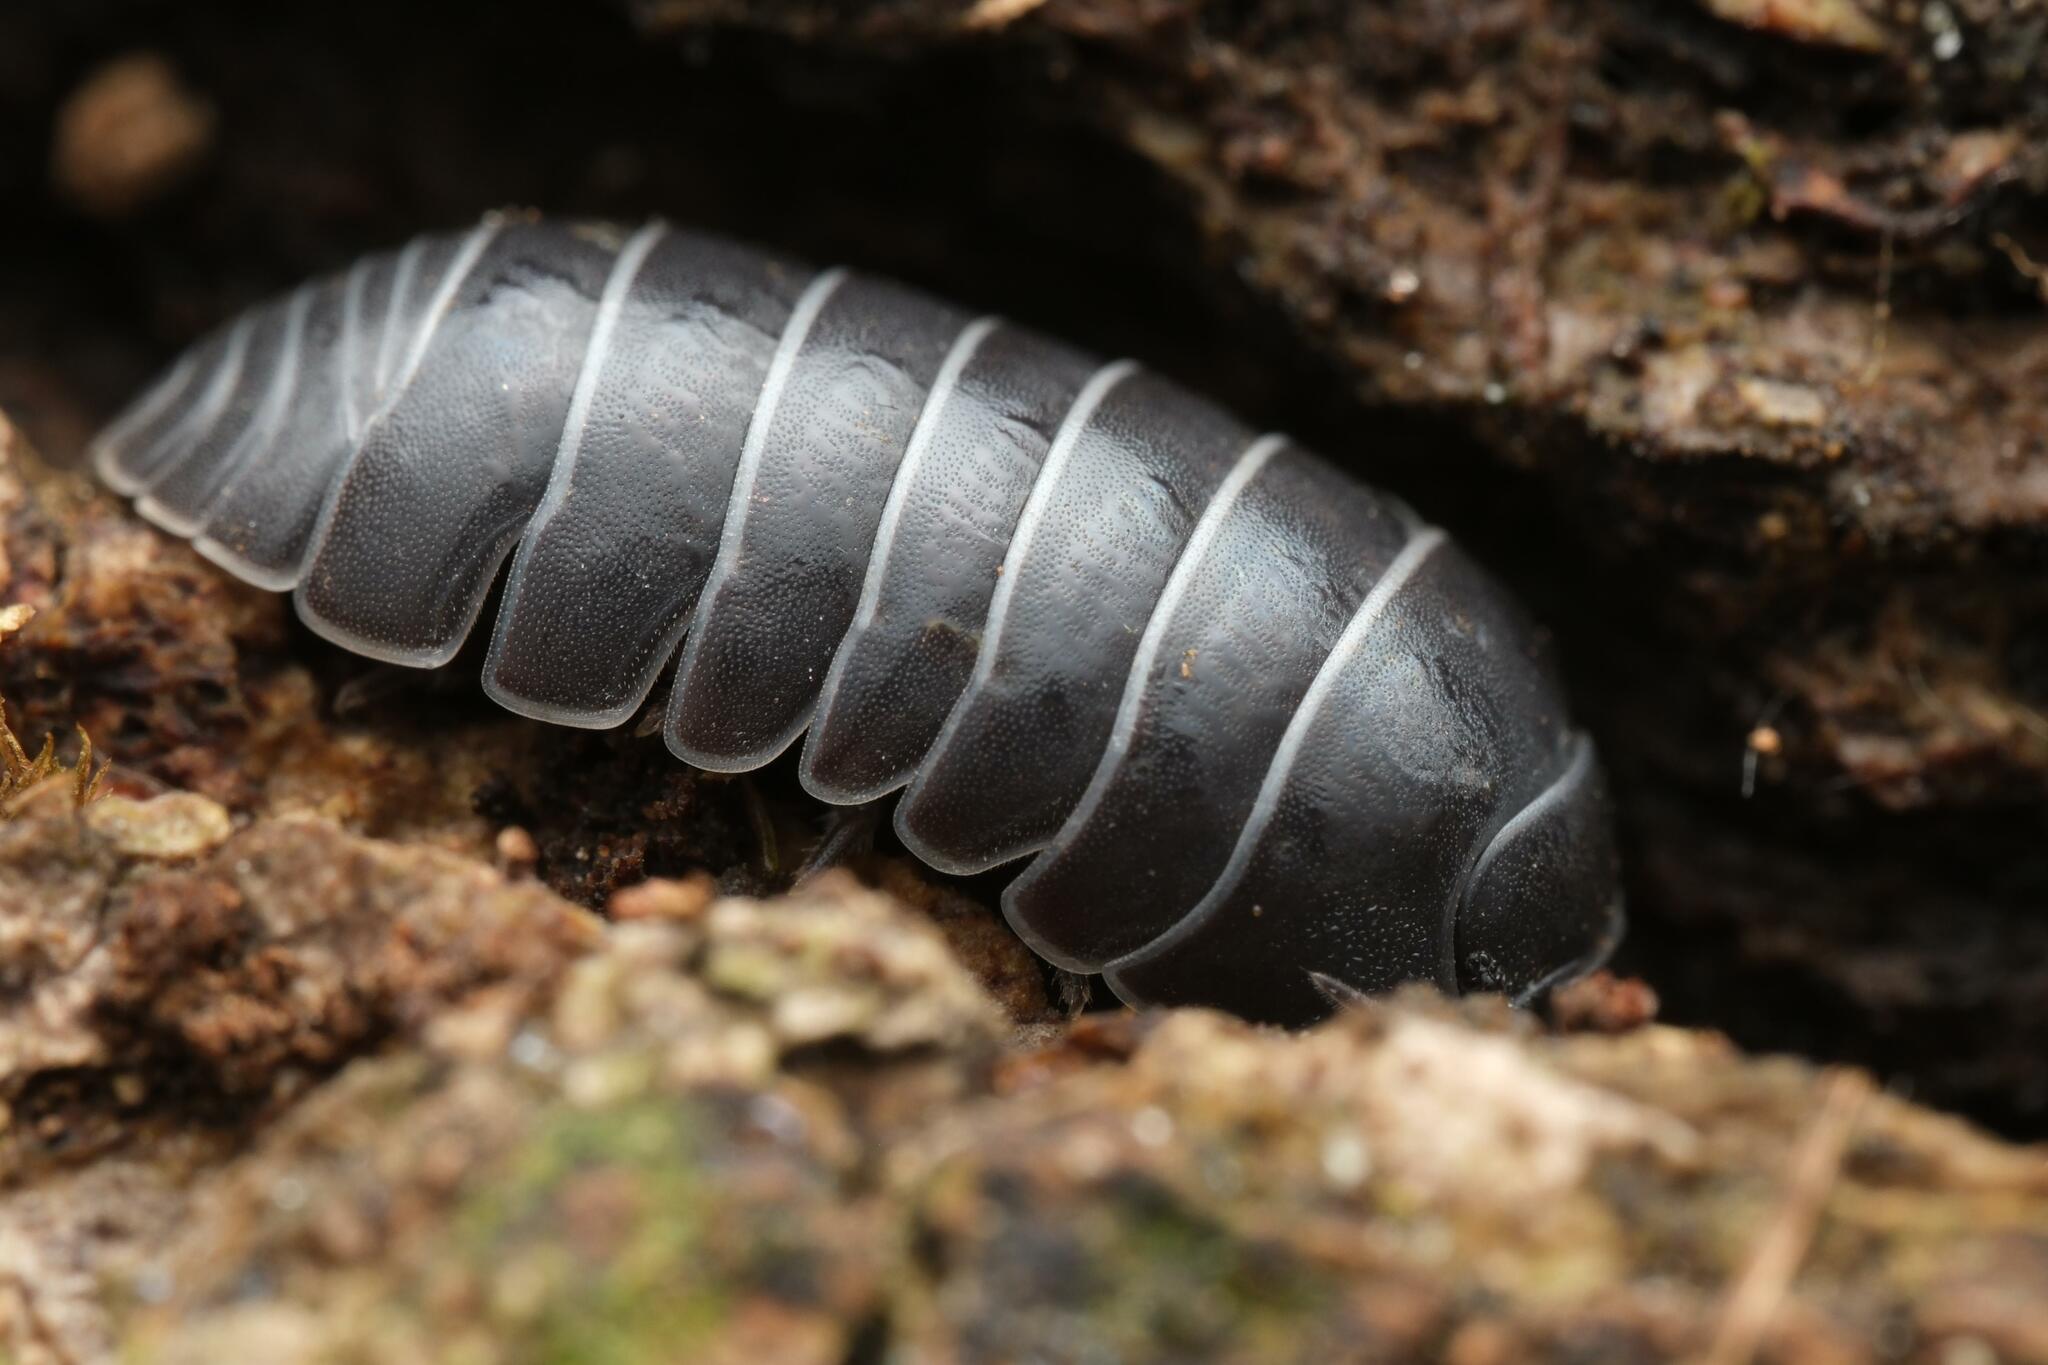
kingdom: Animalia
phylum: Arthropoda
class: Malacostraca
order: Isopoda
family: Armadillidiidae
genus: Armadillidium
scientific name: Armadillidium vulgare
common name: Common pill woodlouse
